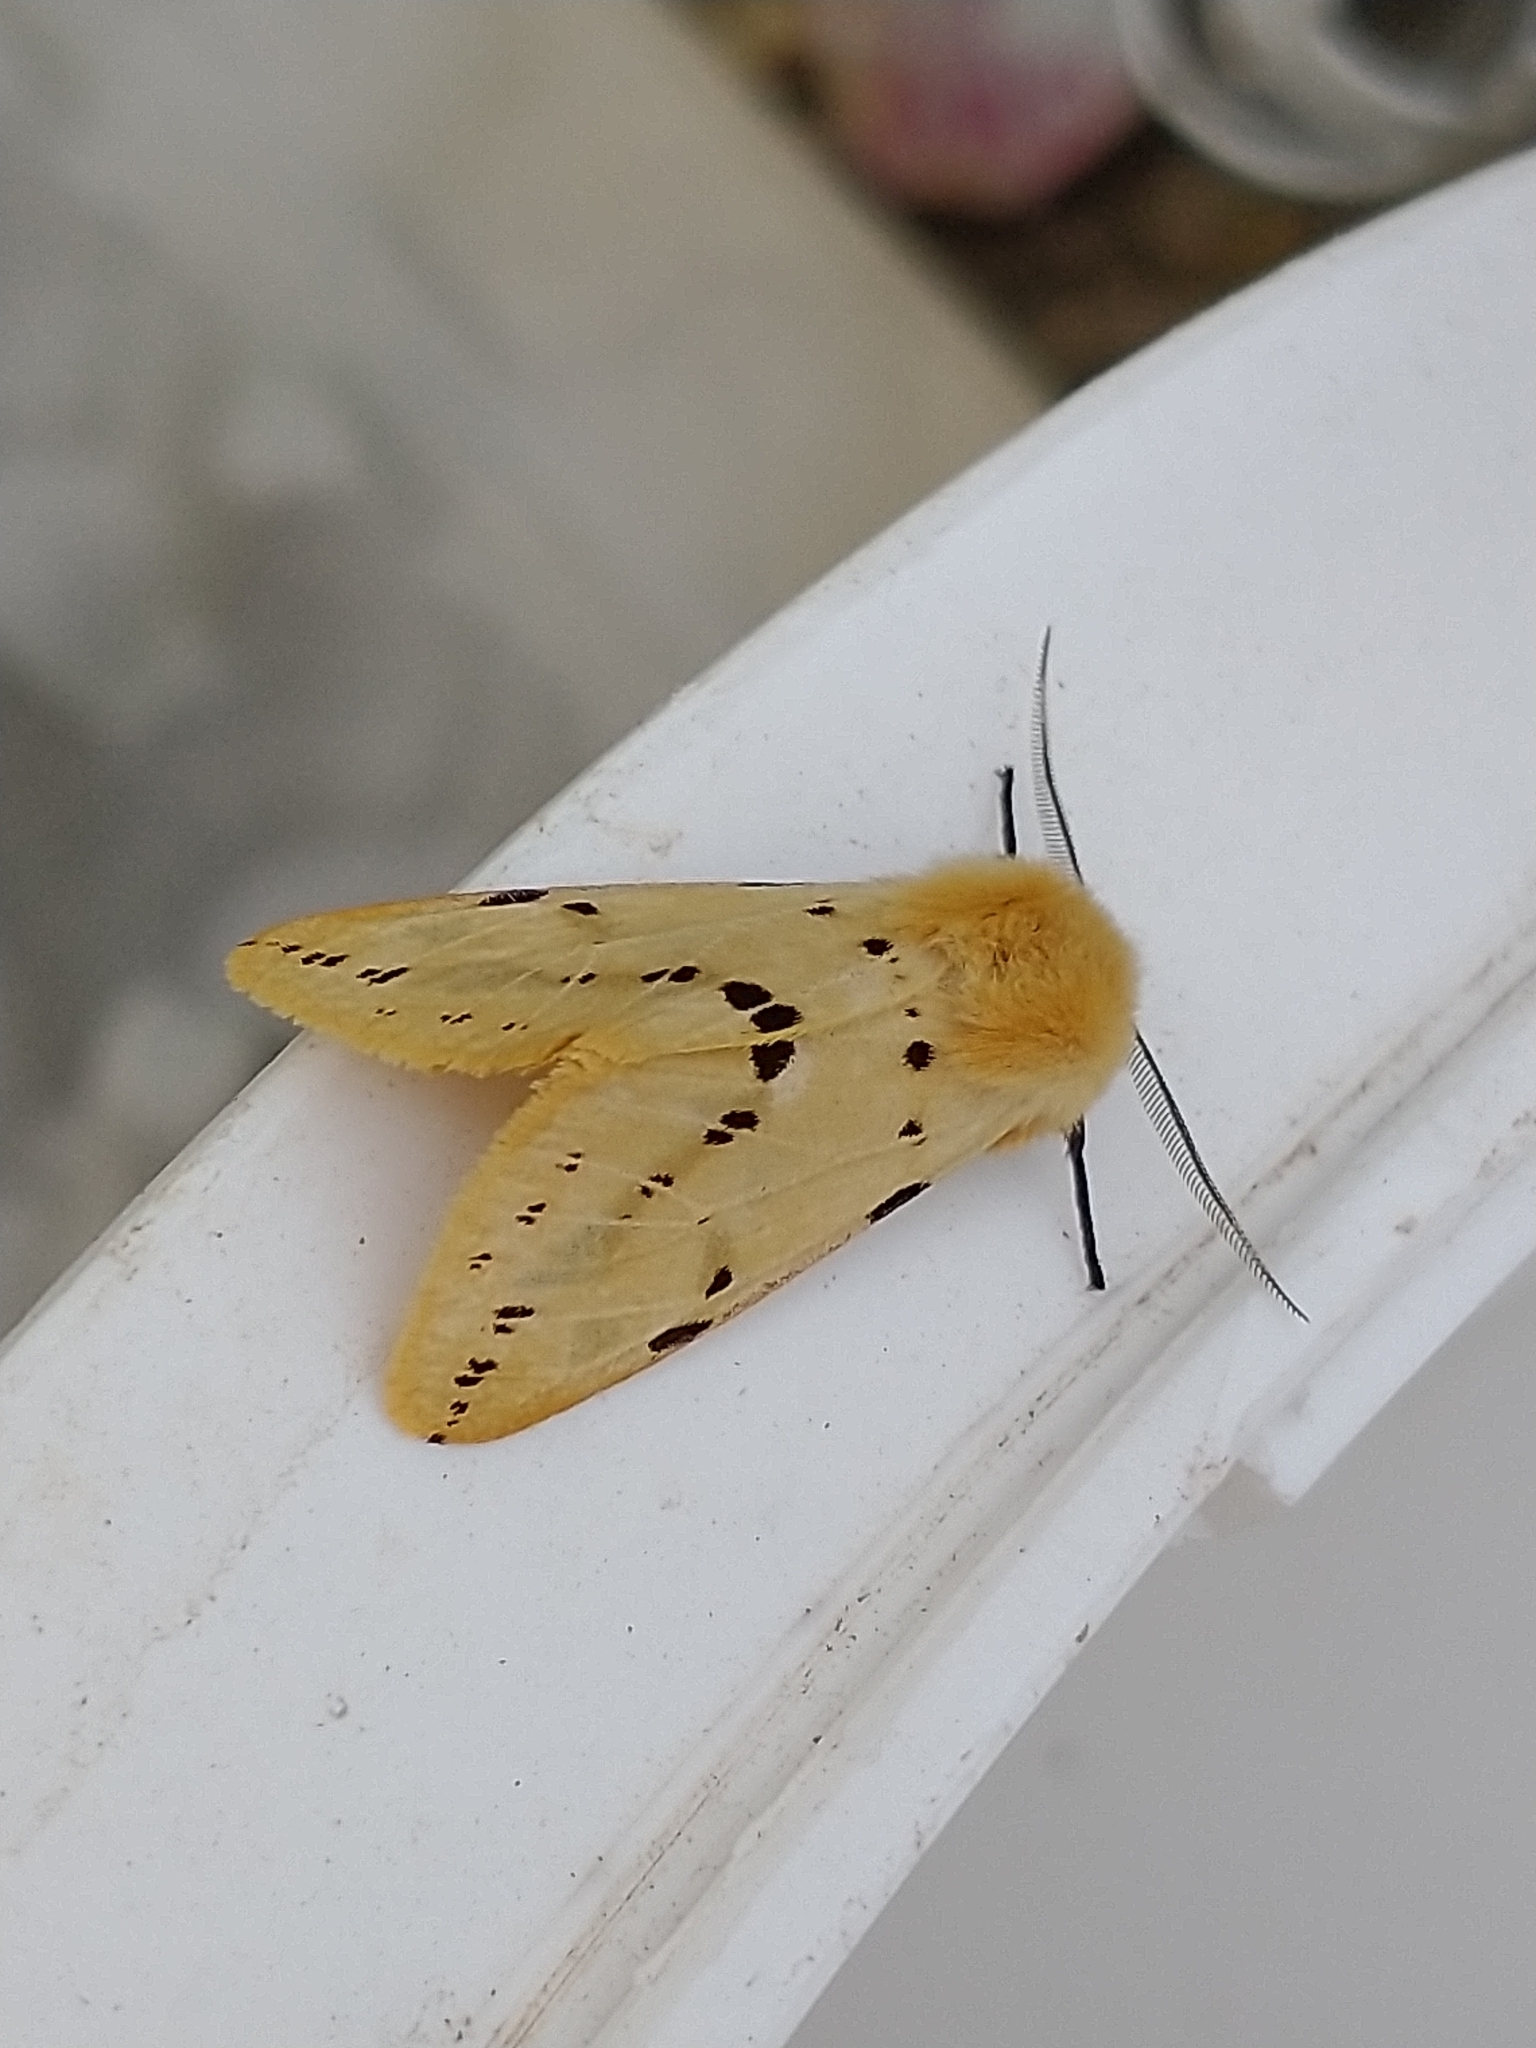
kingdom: Animalia
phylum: Arthropoda
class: Insecta
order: Lepidoptera
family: Erebidae
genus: Spilarctia
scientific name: Spilarctia lutea
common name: Buff ermine
